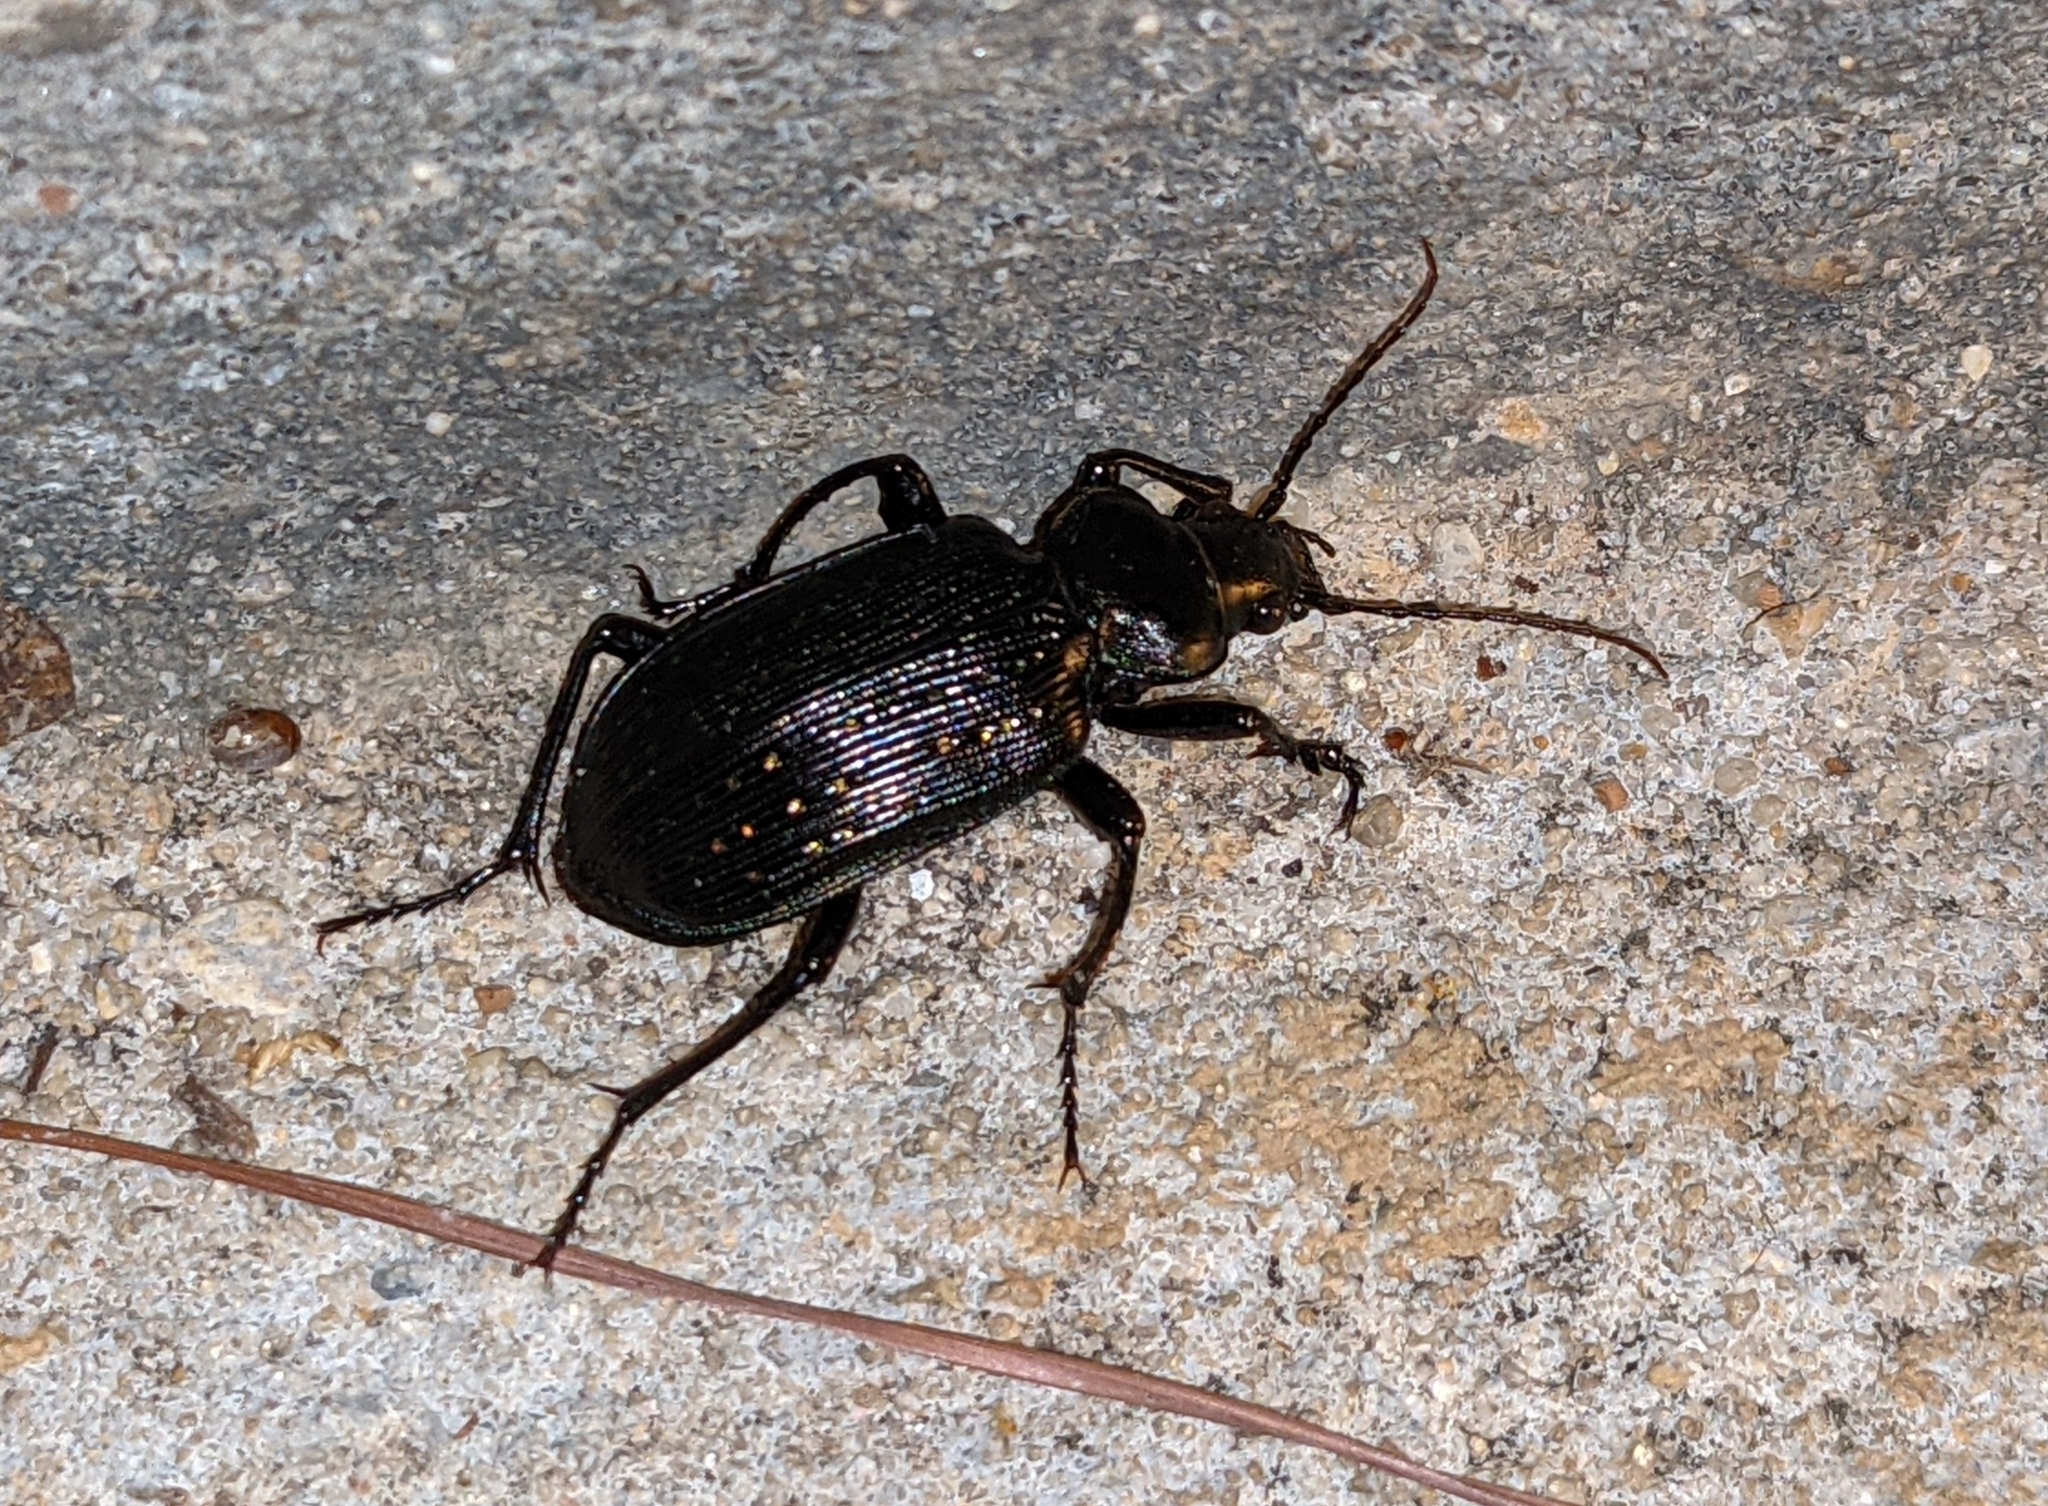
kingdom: Animalia
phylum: Arthropoda
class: Insecta
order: Coleoptera
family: Carabidae
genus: Calosoma
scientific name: Calosoma sayi
